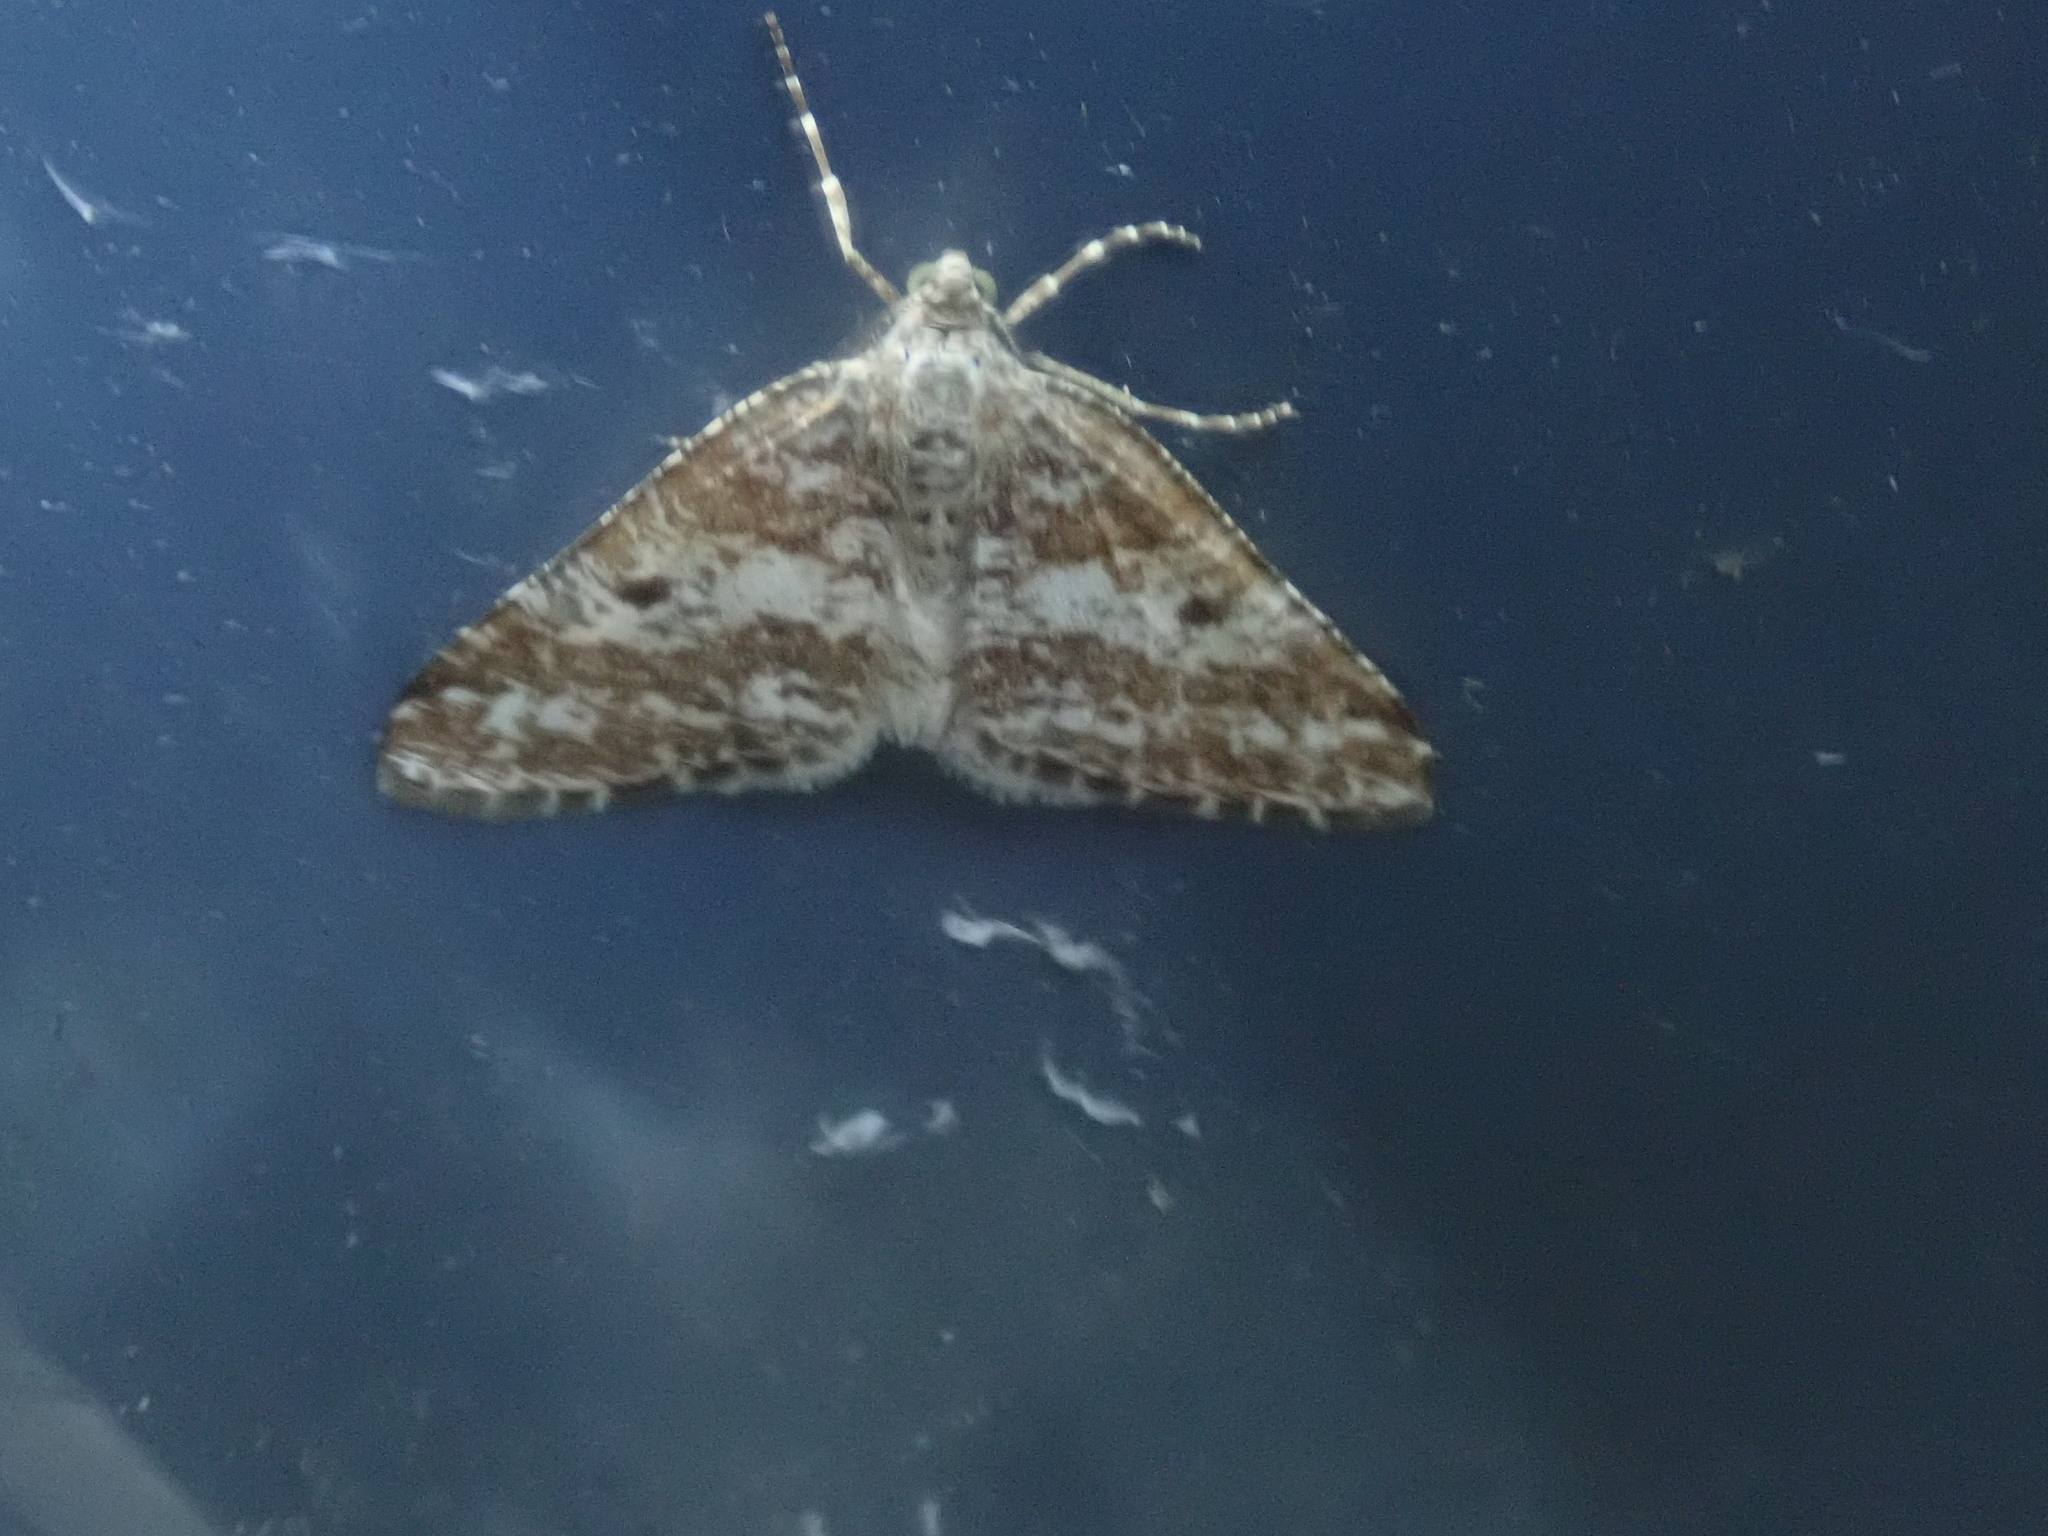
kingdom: Animalia
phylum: Arthropoda
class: Insecta
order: Lepidoptera
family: Geometridae
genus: Eufidonia
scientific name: Eufidonia notataria
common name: Powder moth
